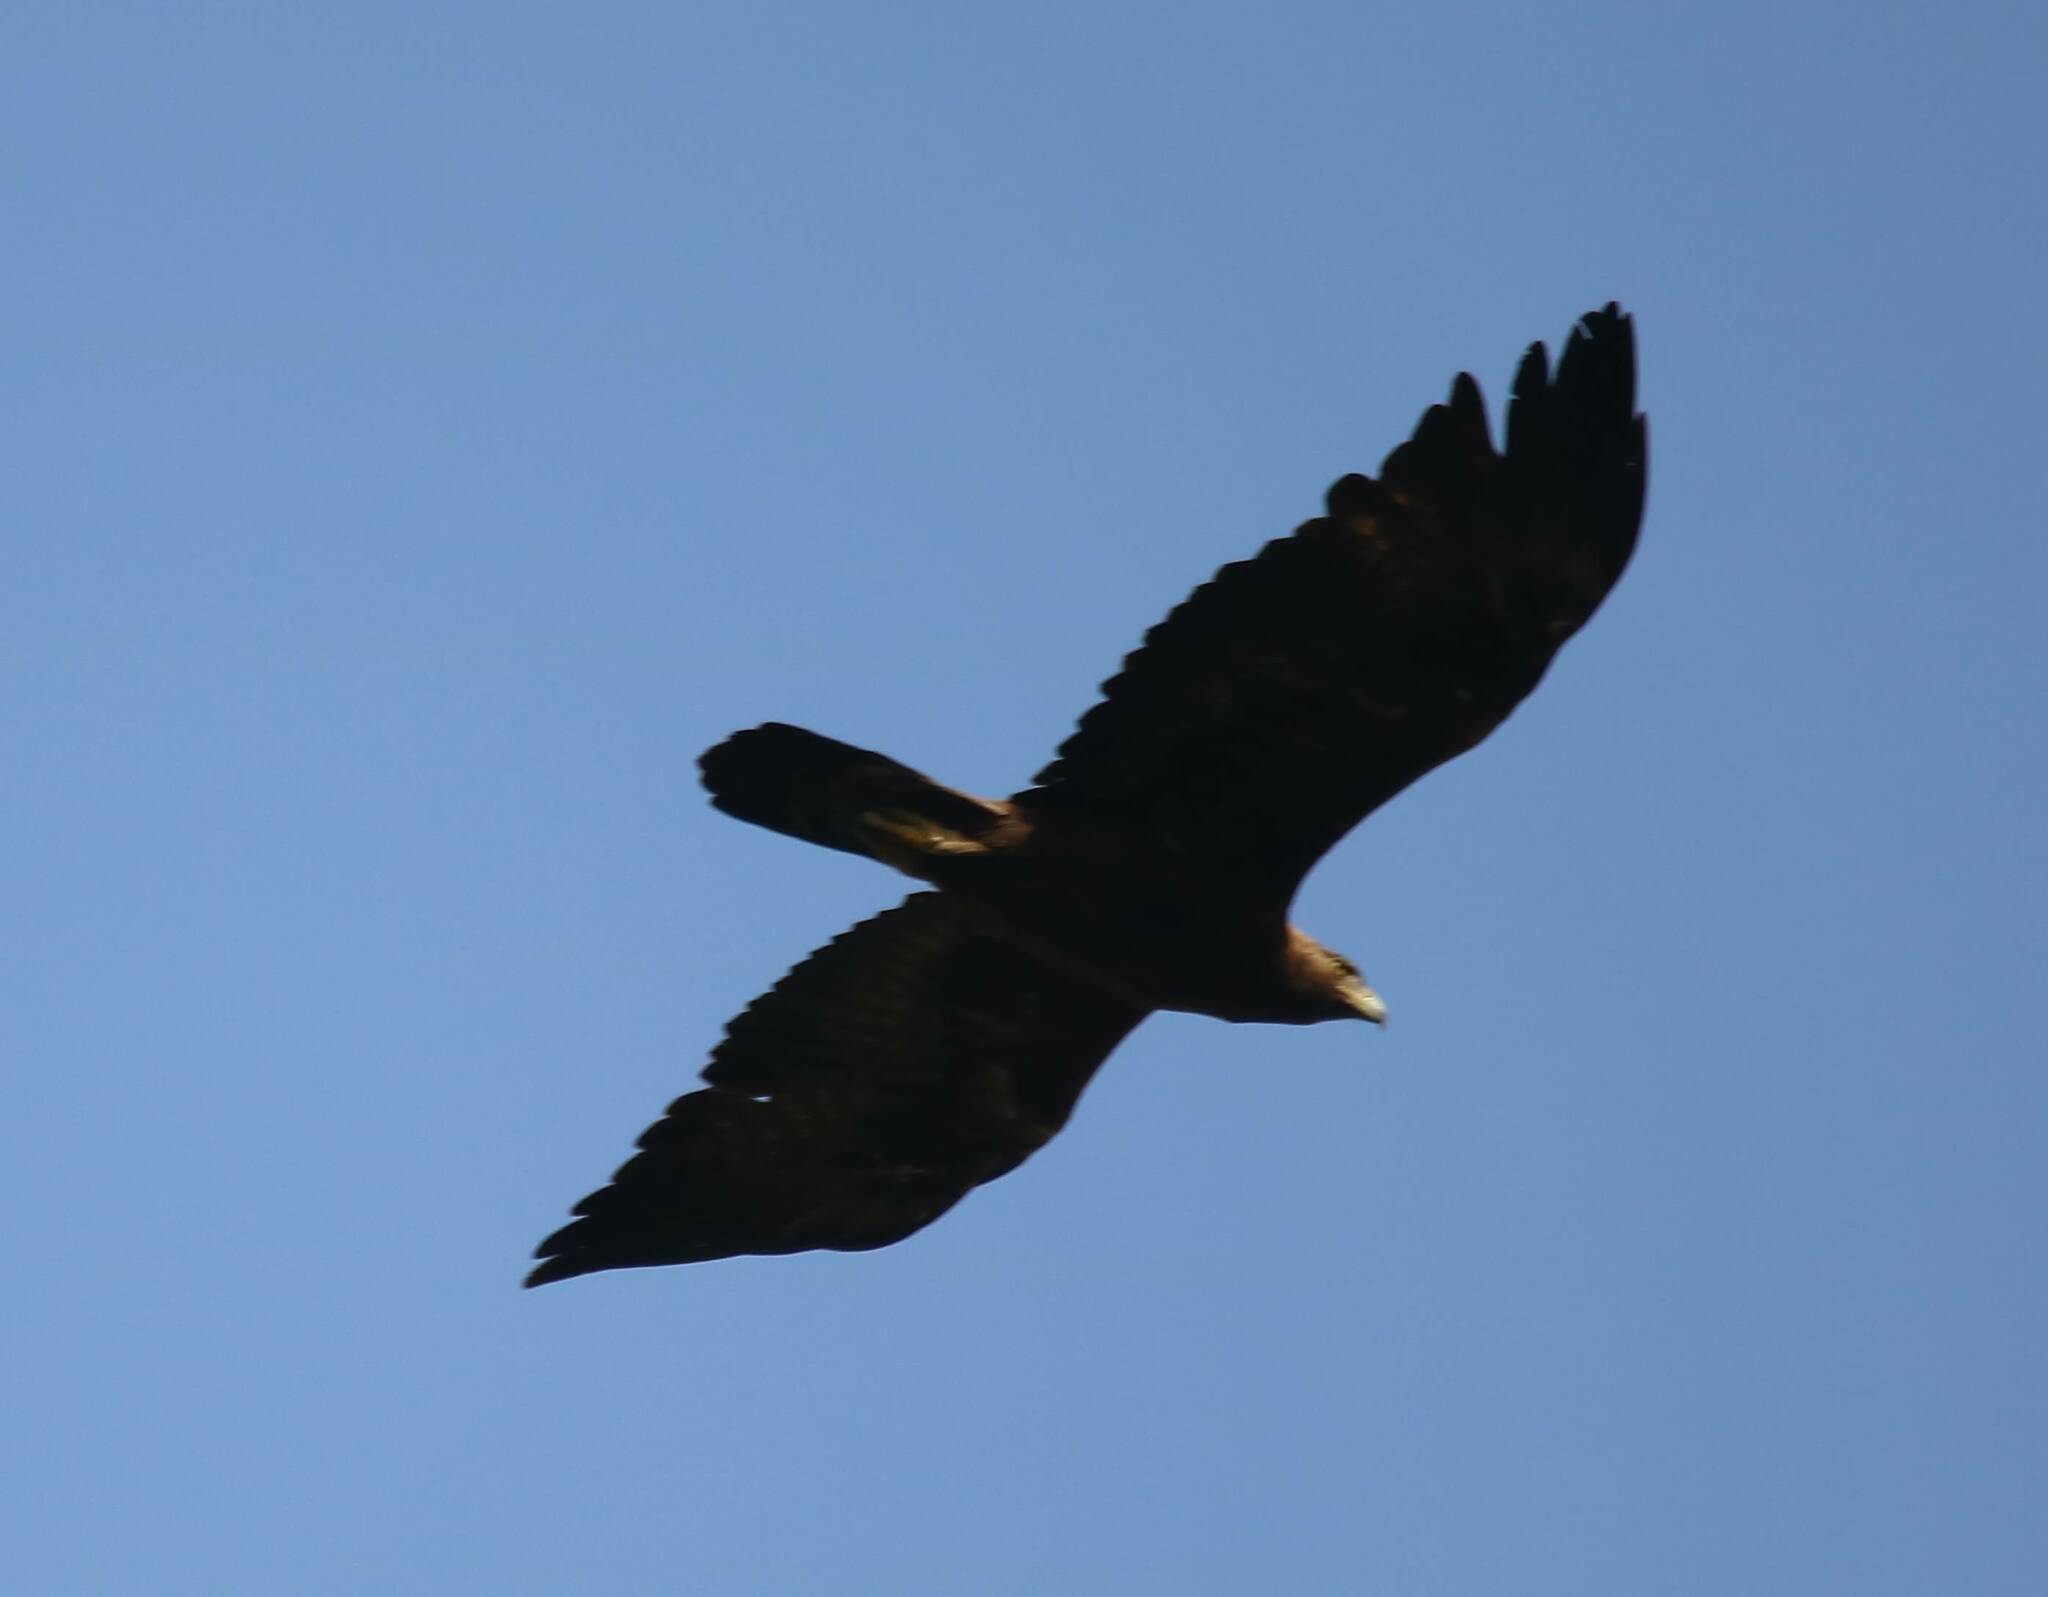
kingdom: Animalia
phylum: Chordata
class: Aves
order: Accipitriformes
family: Accipitridae
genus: Aquila
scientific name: Aquila chrysaetos
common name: Golden eagle
